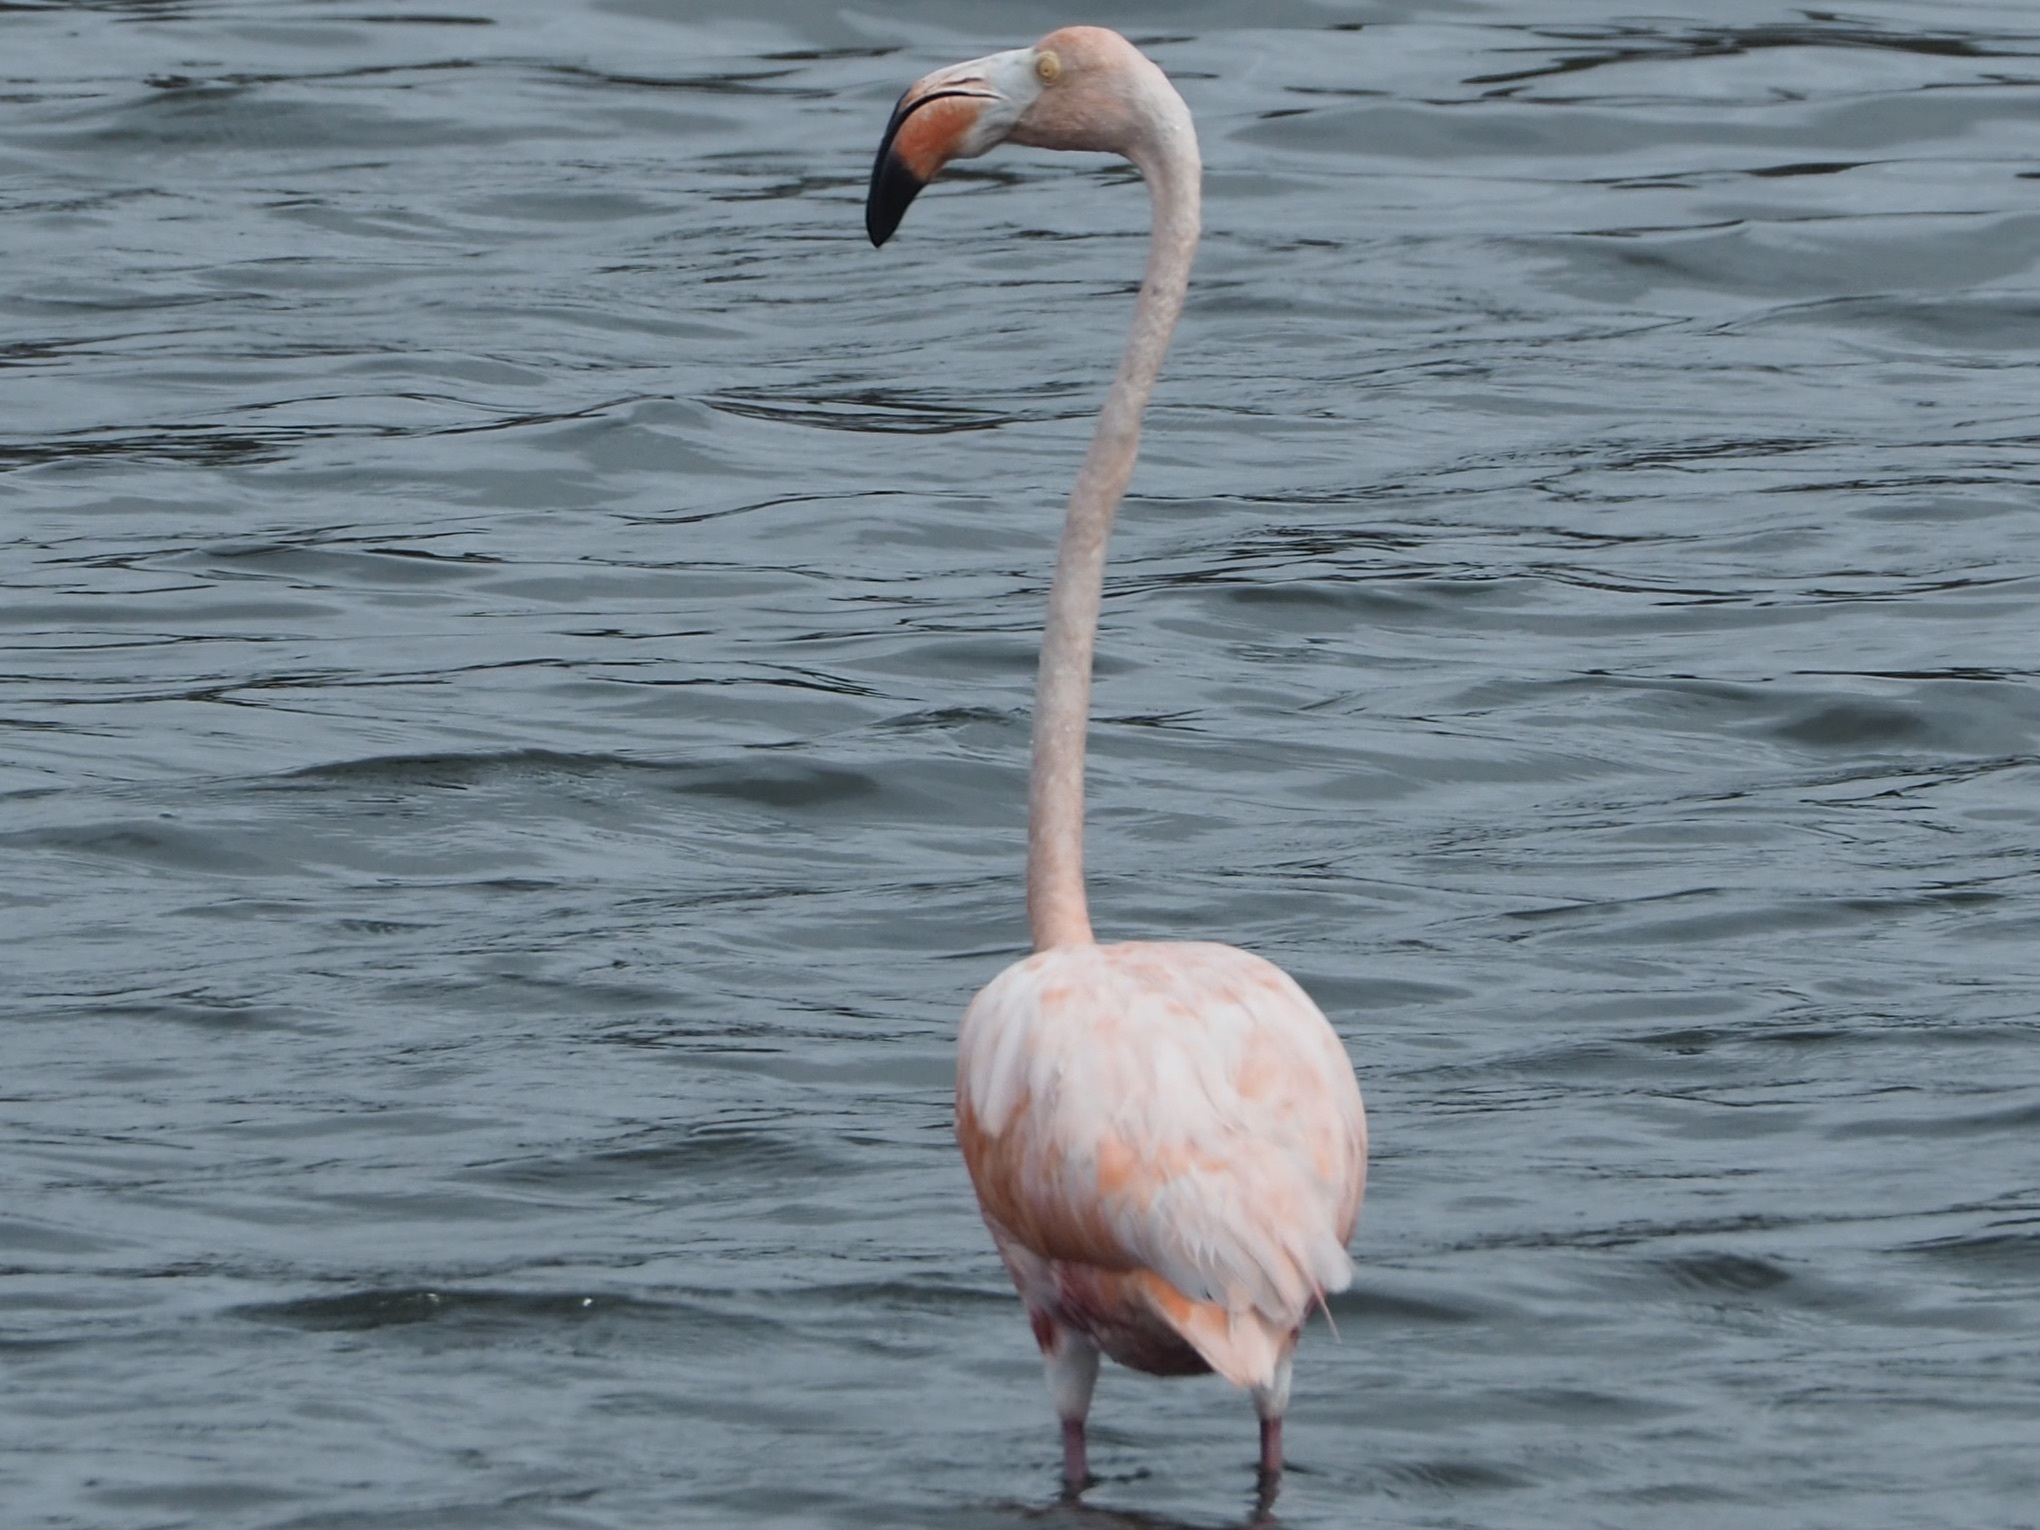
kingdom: Animalia
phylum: Chordata
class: Aves
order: Phoenicopteriformes
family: Phoenicopteridae
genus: Phoenicopterus
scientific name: Phoenicopterus ruber
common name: American flamingo
